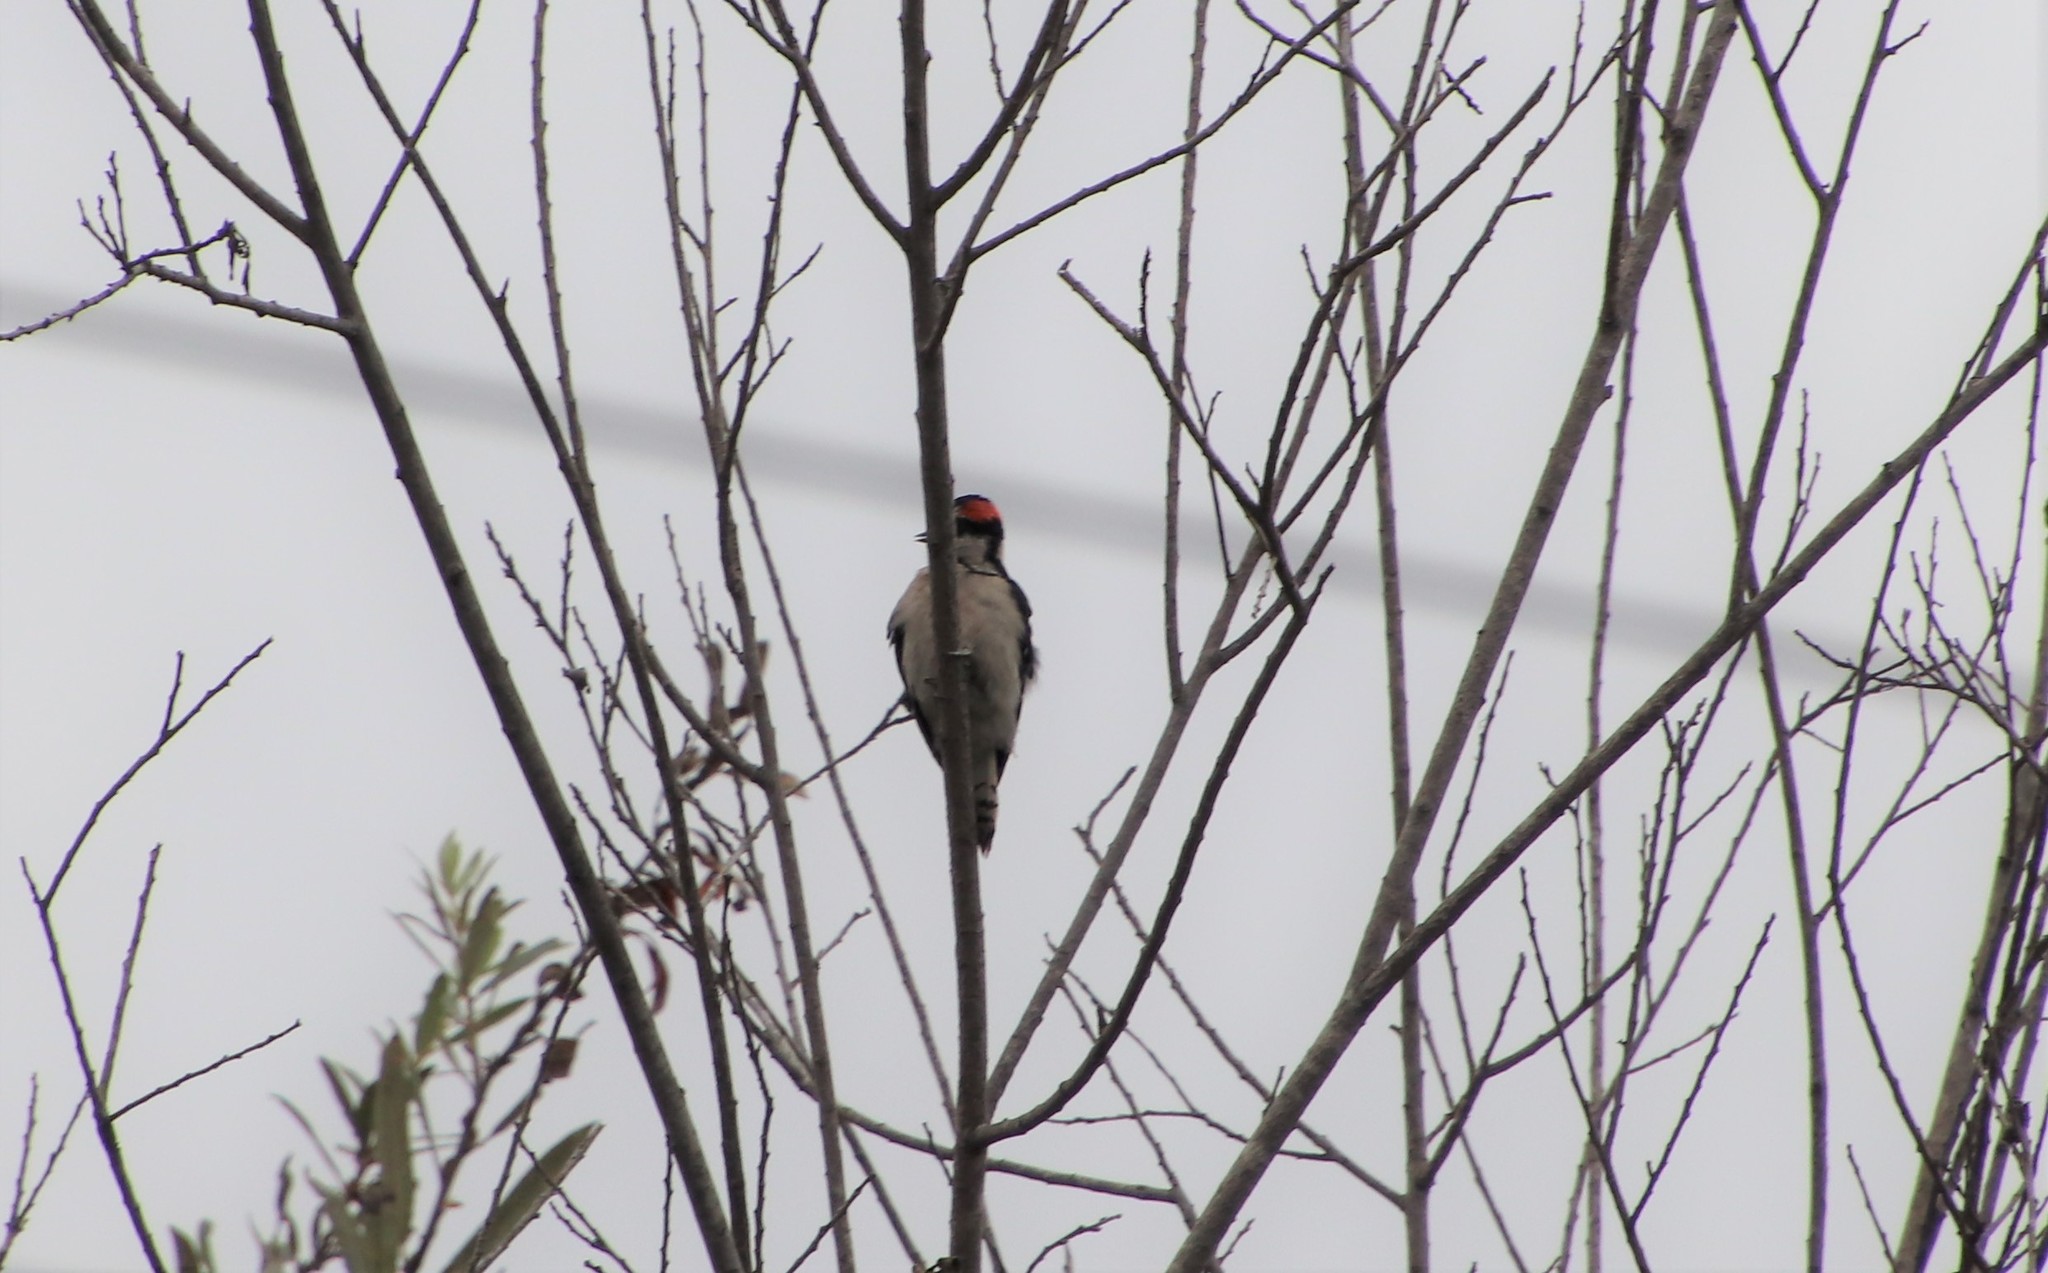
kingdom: Animalia
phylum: Chordata
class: Aves
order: Piciformes
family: Picidae
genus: Dryobates
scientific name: Dryobates pubescens
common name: Downy woodpecker
